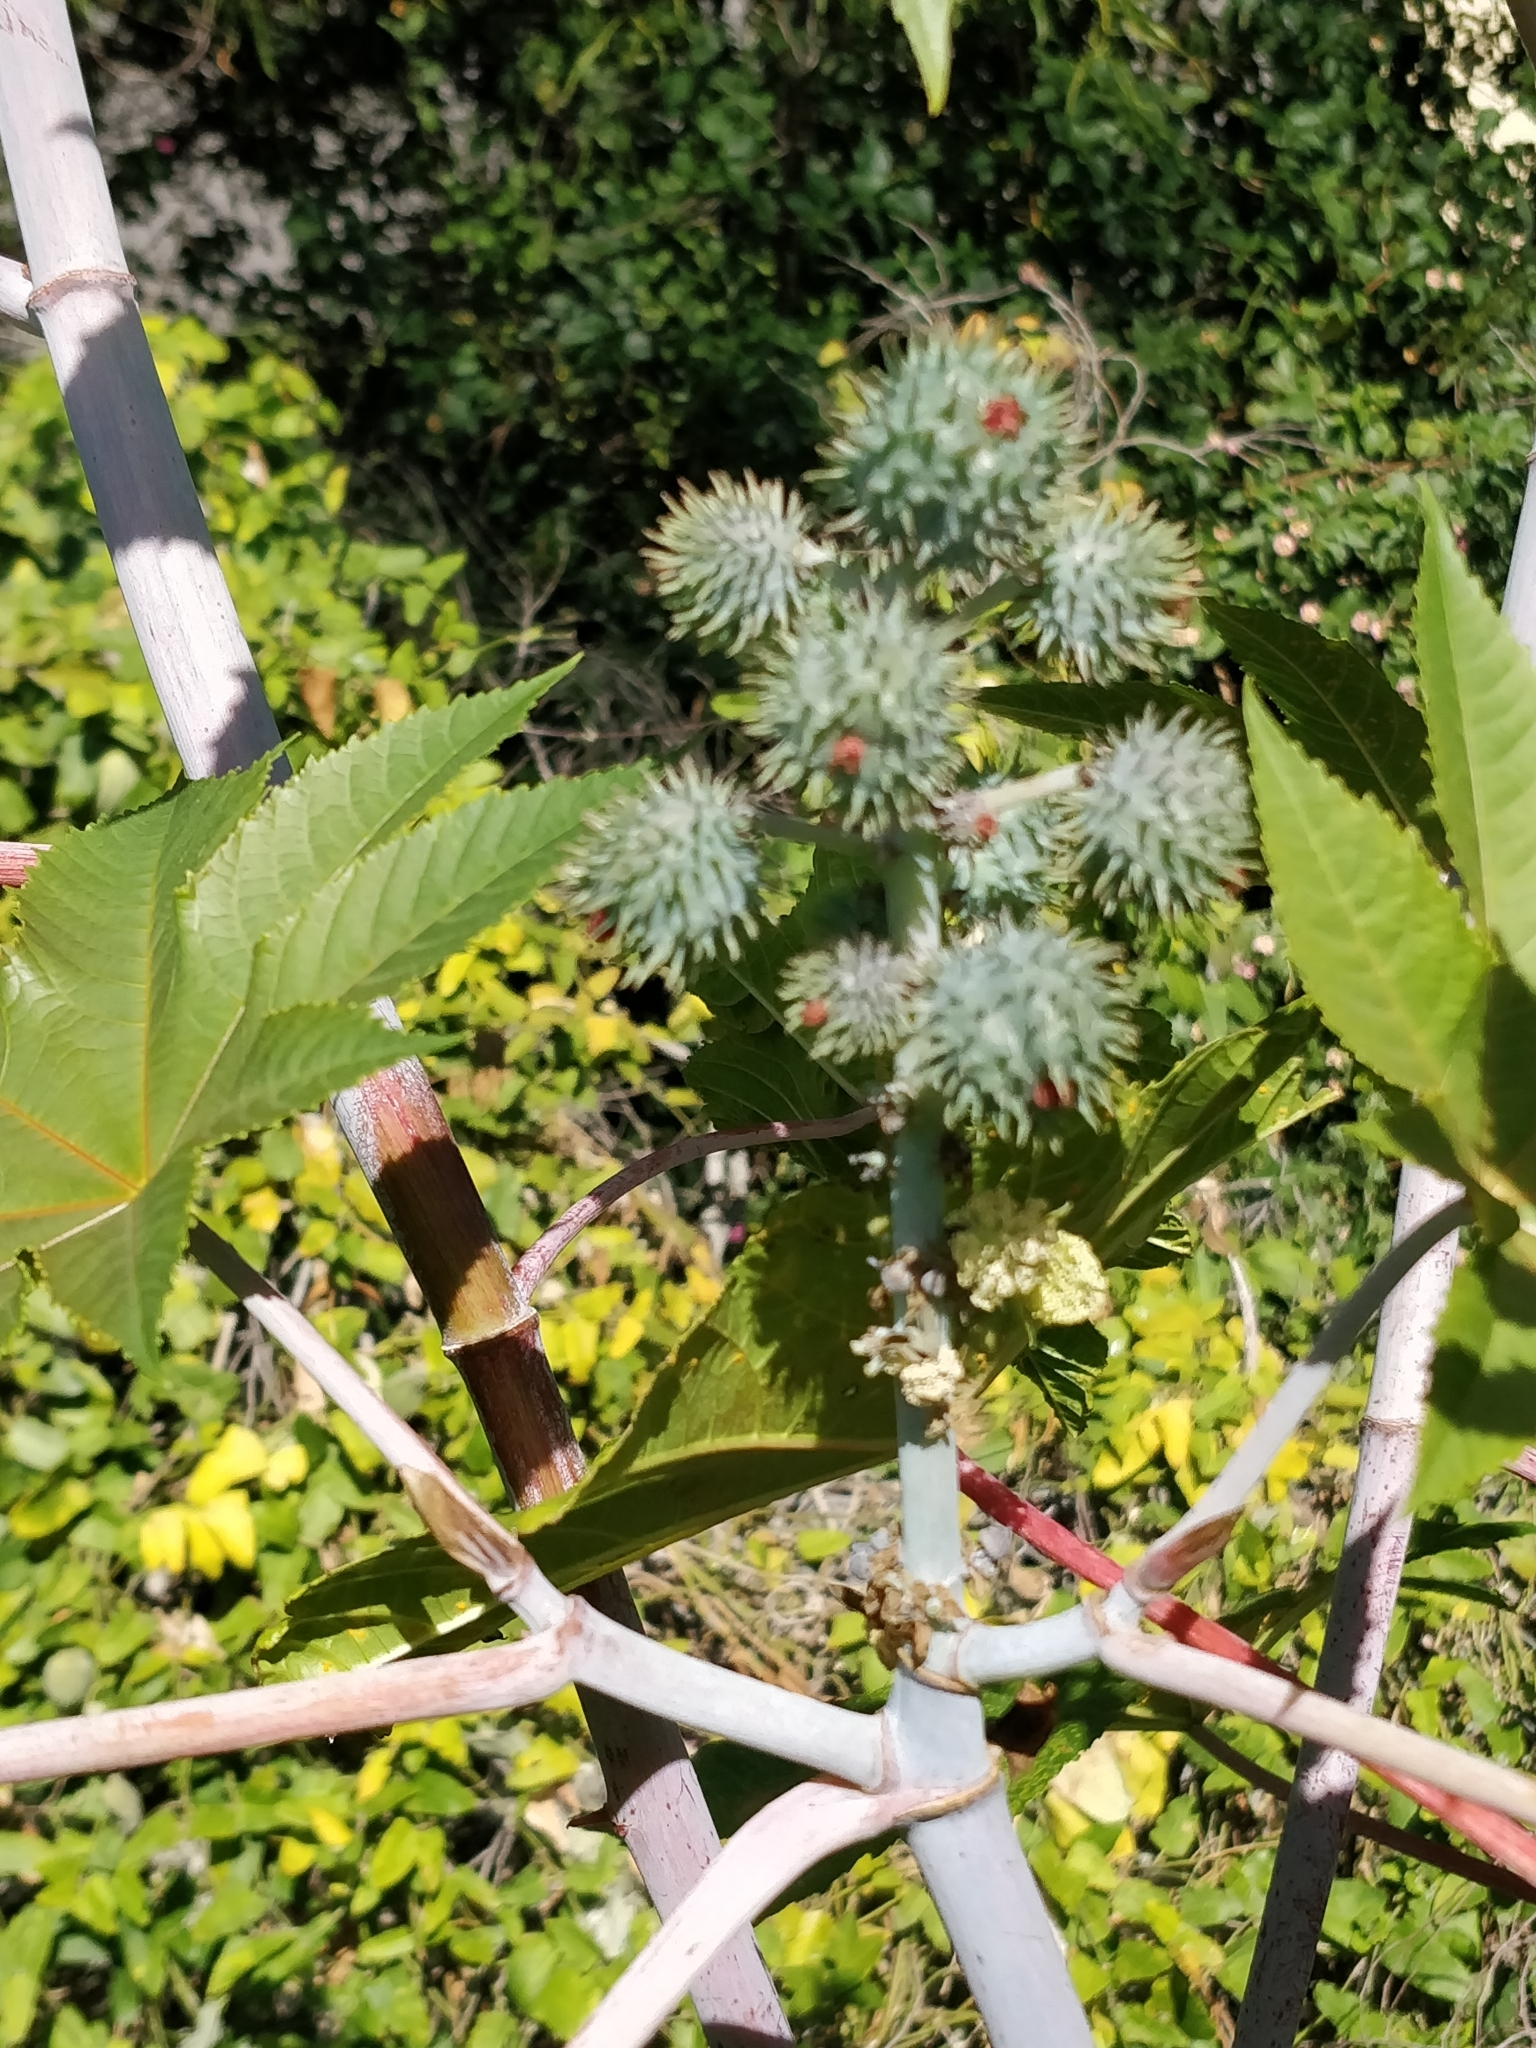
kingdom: Plantae
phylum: Tracheophyta
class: Magnoliopsida
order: Malpighiales
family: Euphorbiaceae
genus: Ricinus
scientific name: Ricinus communis
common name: Castor-oil-plant
